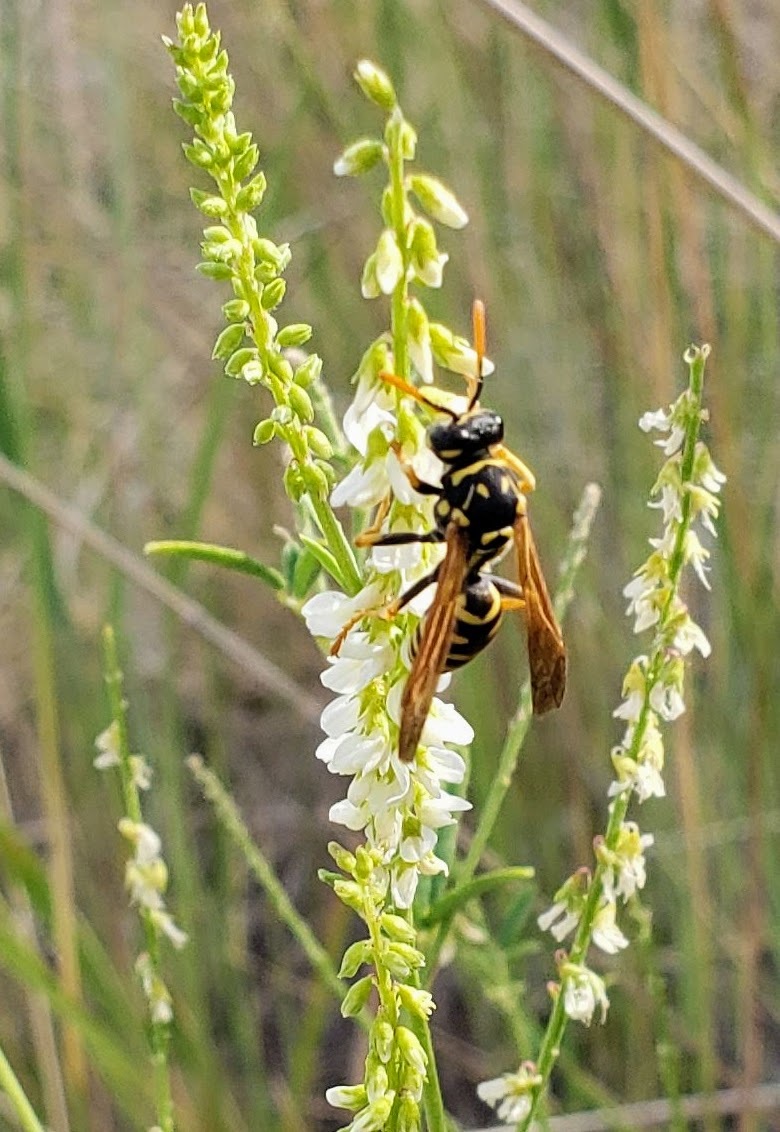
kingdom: Animalia
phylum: Arthropoda
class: Insecta
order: Hymenoptera
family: Eumenidae
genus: Polistes
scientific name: Polistes dominula
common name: Paper wasp
